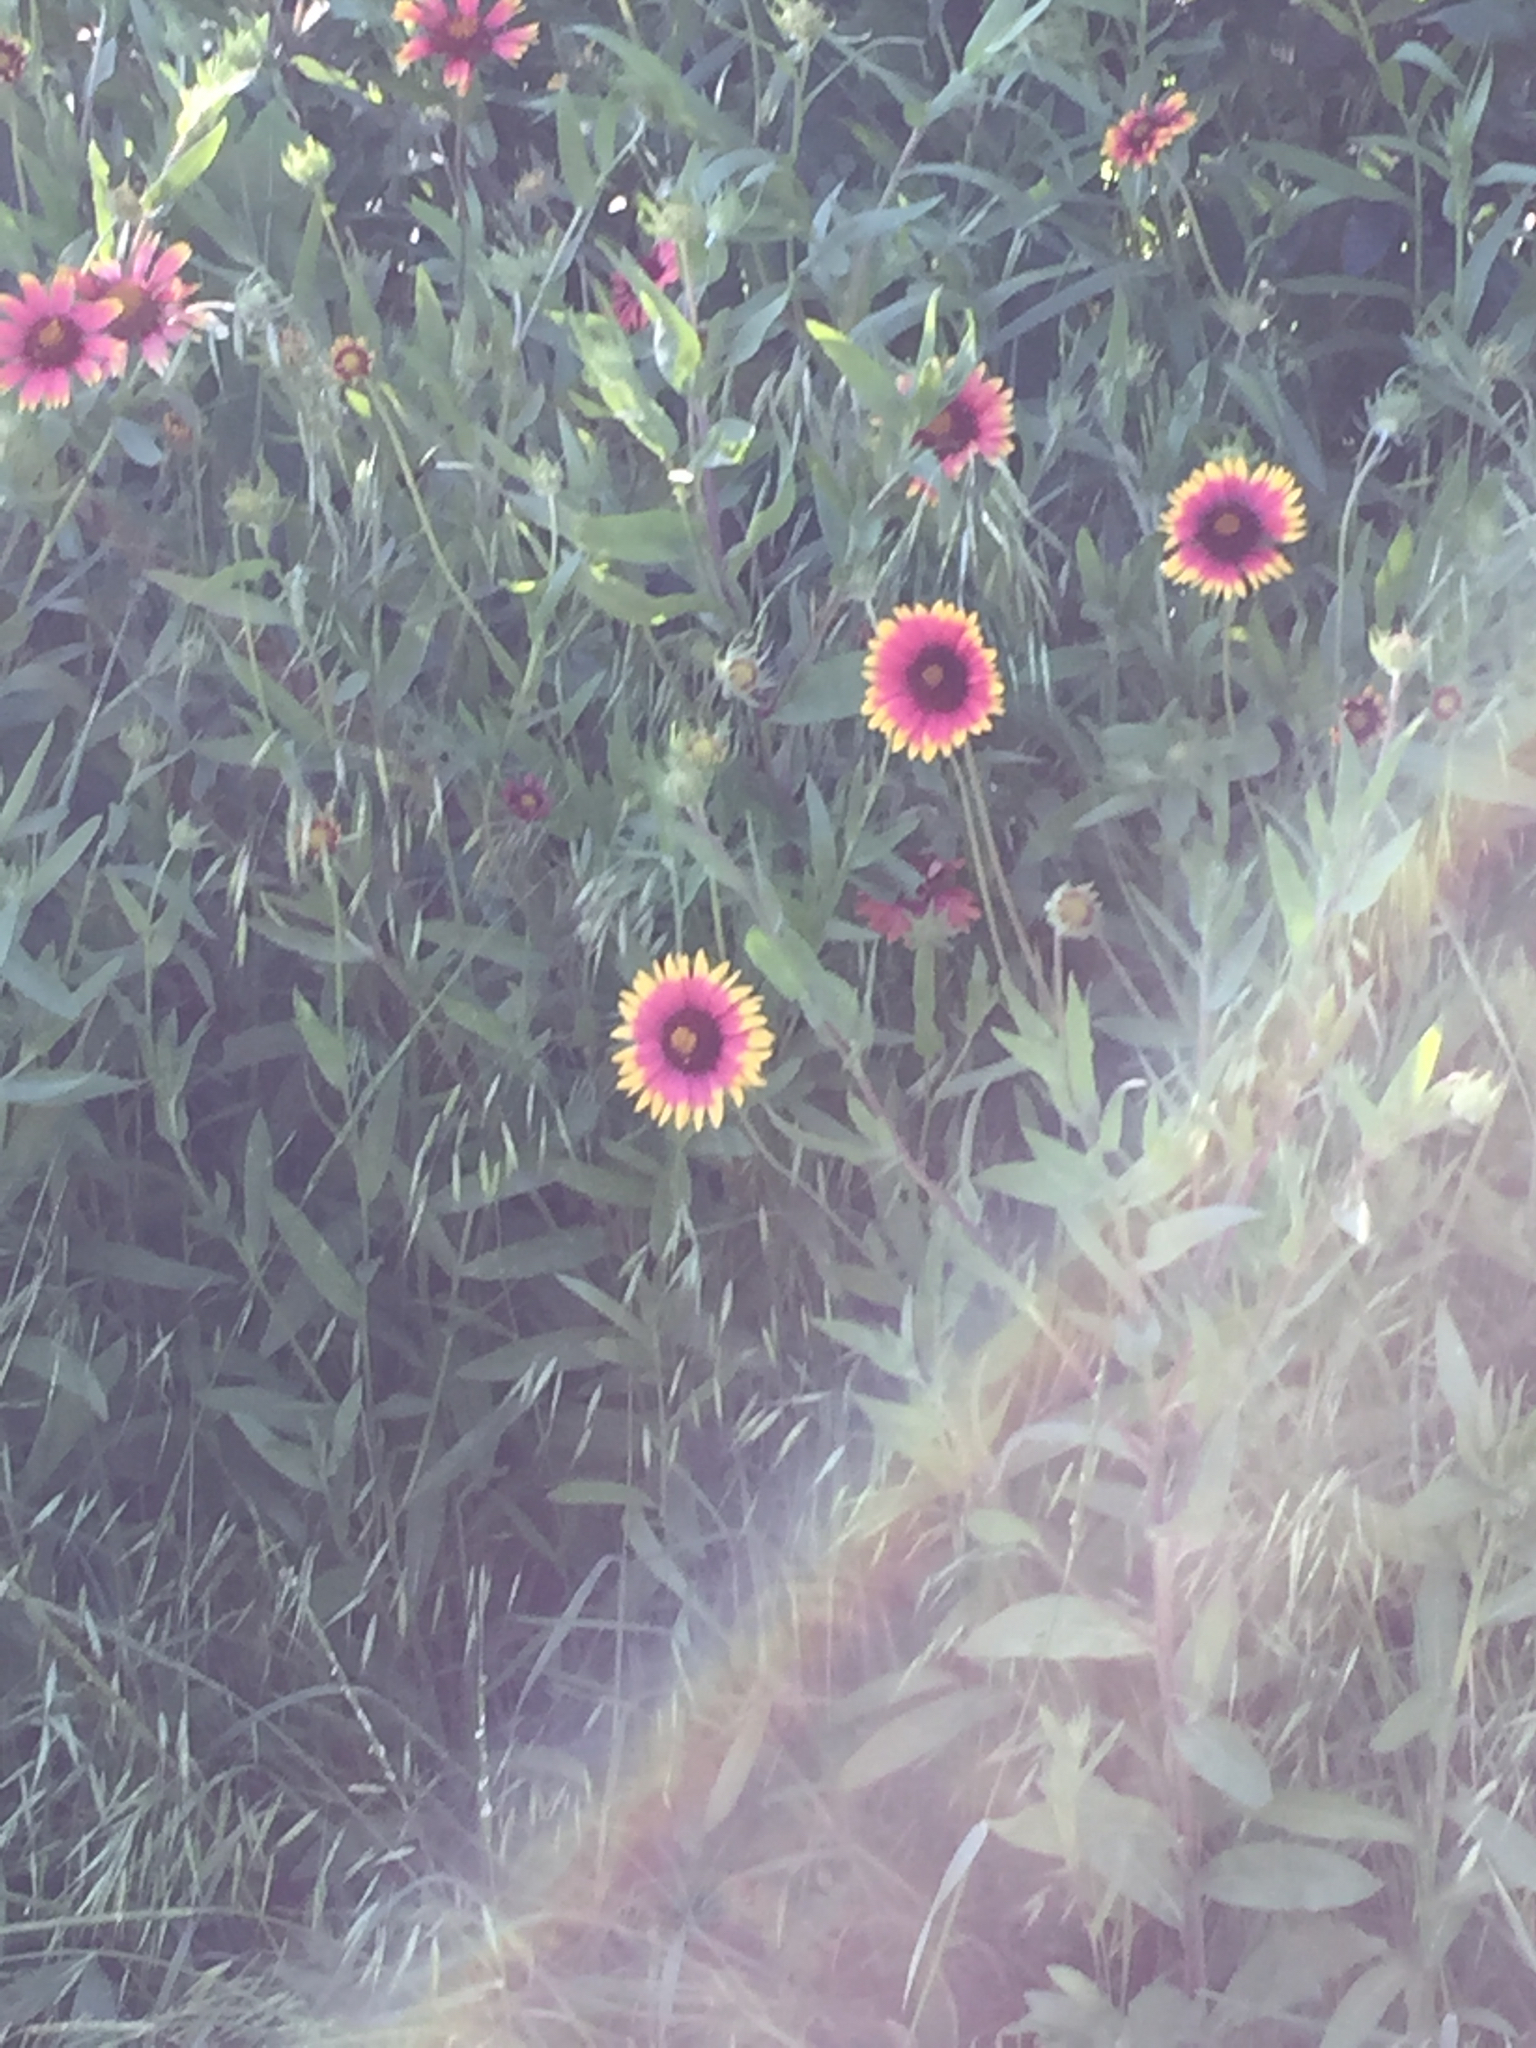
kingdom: Plantae
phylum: Tracheophyta
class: Magnoliopsida
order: Asterales
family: Asteraceae
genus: Gaillardia
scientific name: Gaillardia pulchella
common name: Firewheel
